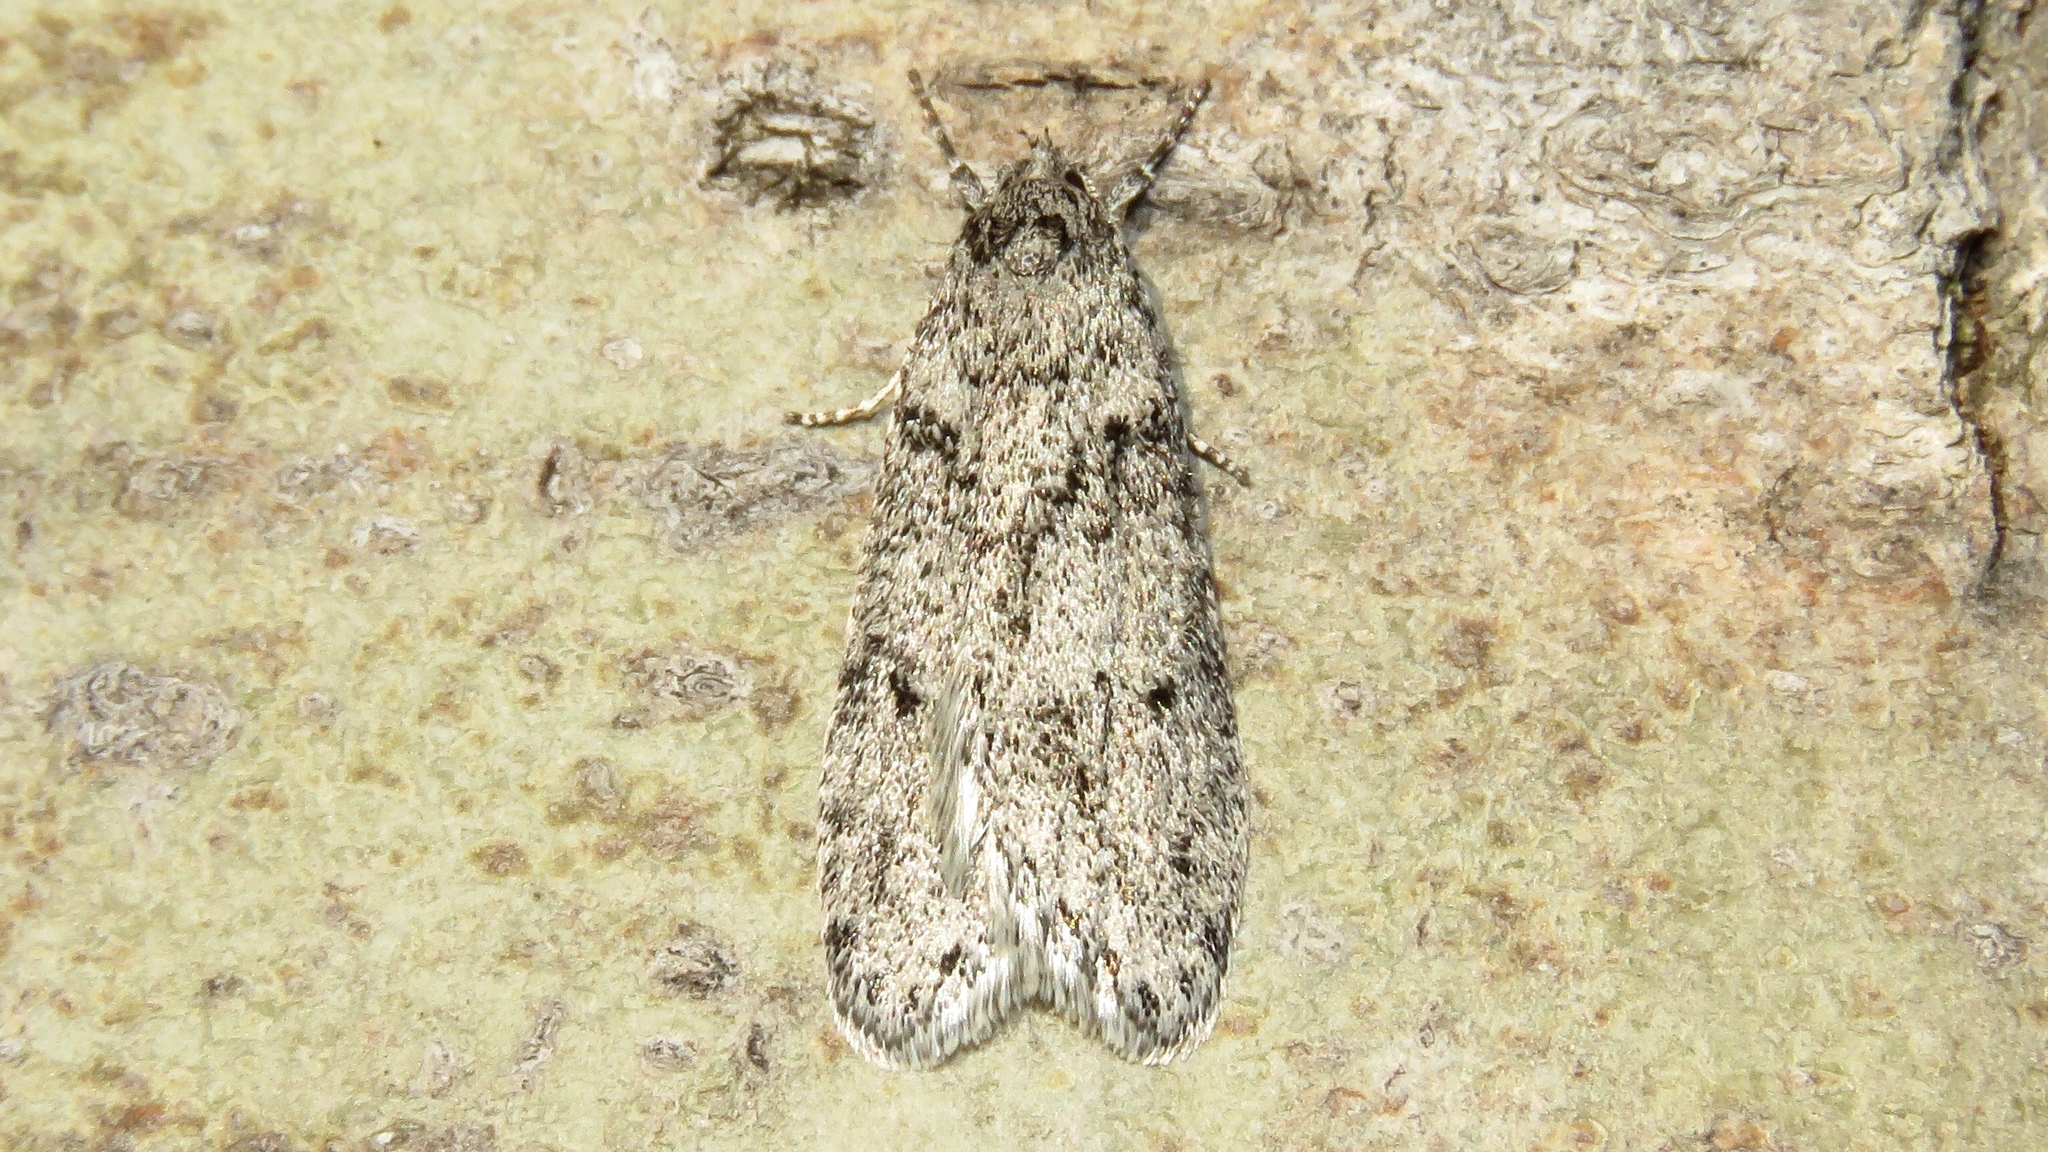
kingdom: Animalia
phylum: Arthropoda
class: Insecta
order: Lepidoptera
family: Depressariidae
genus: Semioscopis
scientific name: Semioscopis inornata
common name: Poplar micromoth
